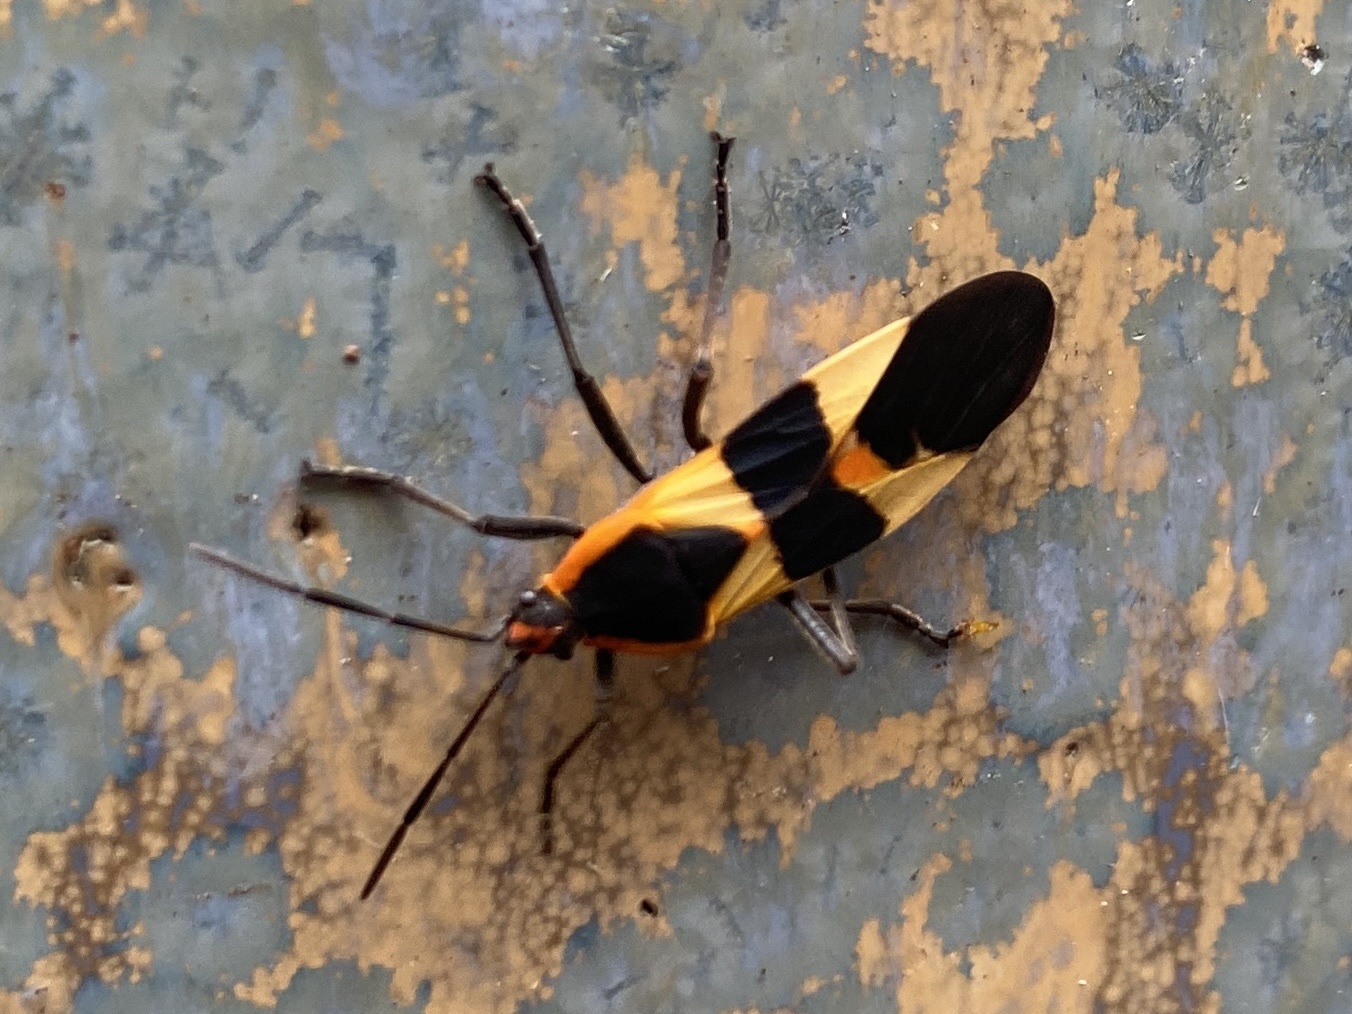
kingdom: Animalia
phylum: Arthropoda
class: Insecta
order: Hemiptera
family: Lygaeidae
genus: Oncopeltus
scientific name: Oncopeltus fasciatus
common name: Large milkweed bug
